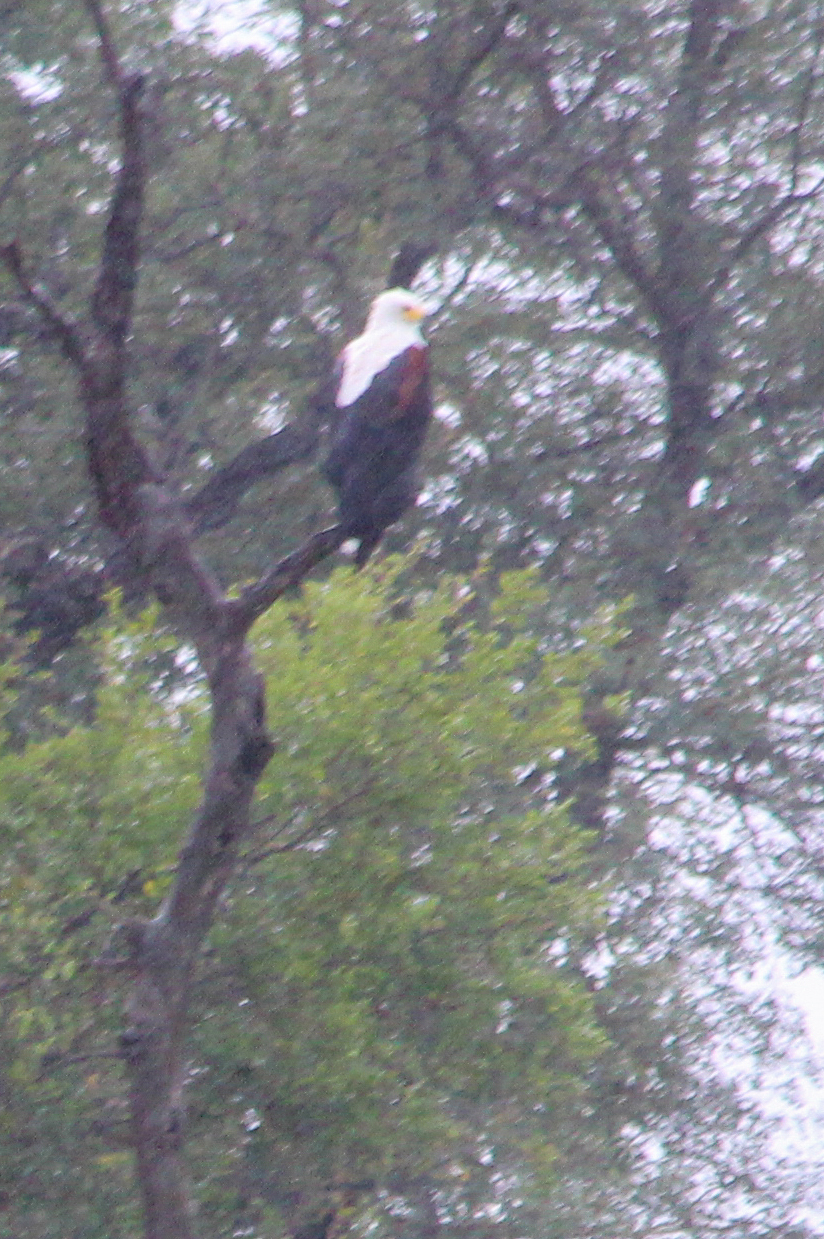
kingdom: Animalia
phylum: Chordata
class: Aves
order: Accipitriformes
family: Accipitridae
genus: Haliaeetus
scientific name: Haliaeetus vocifer
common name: African fish eagle
